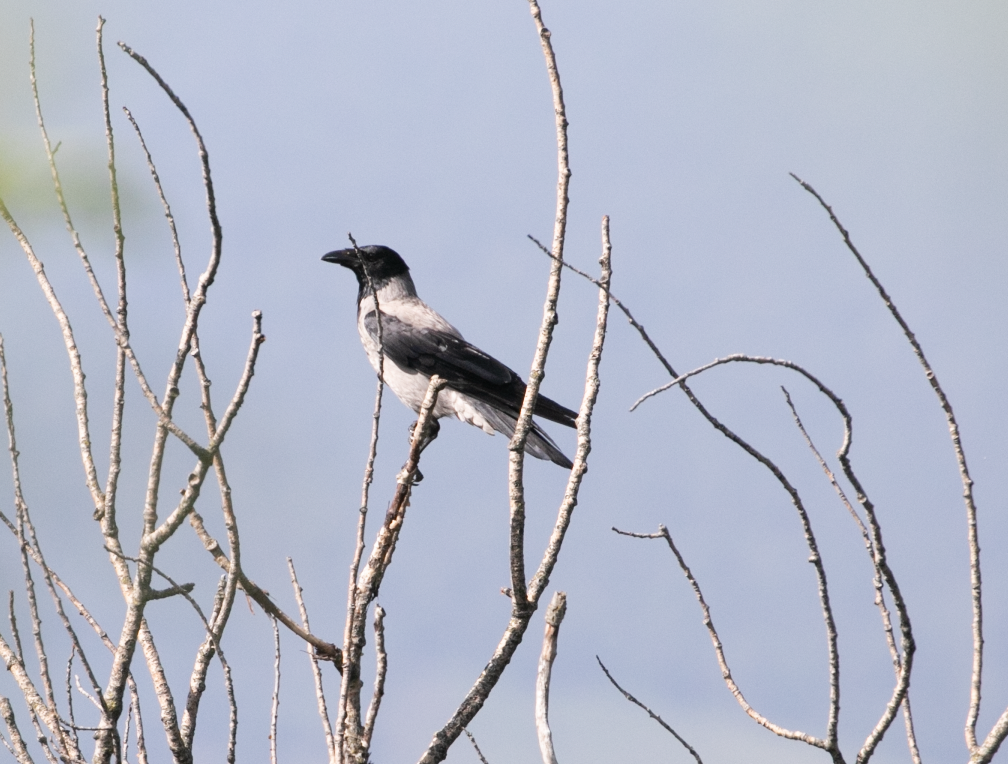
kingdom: Animalia
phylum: Chordata
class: Aves
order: Passeriformes
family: Corvidae
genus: Corvus
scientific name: Corvus cornix
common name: Hooded crow
